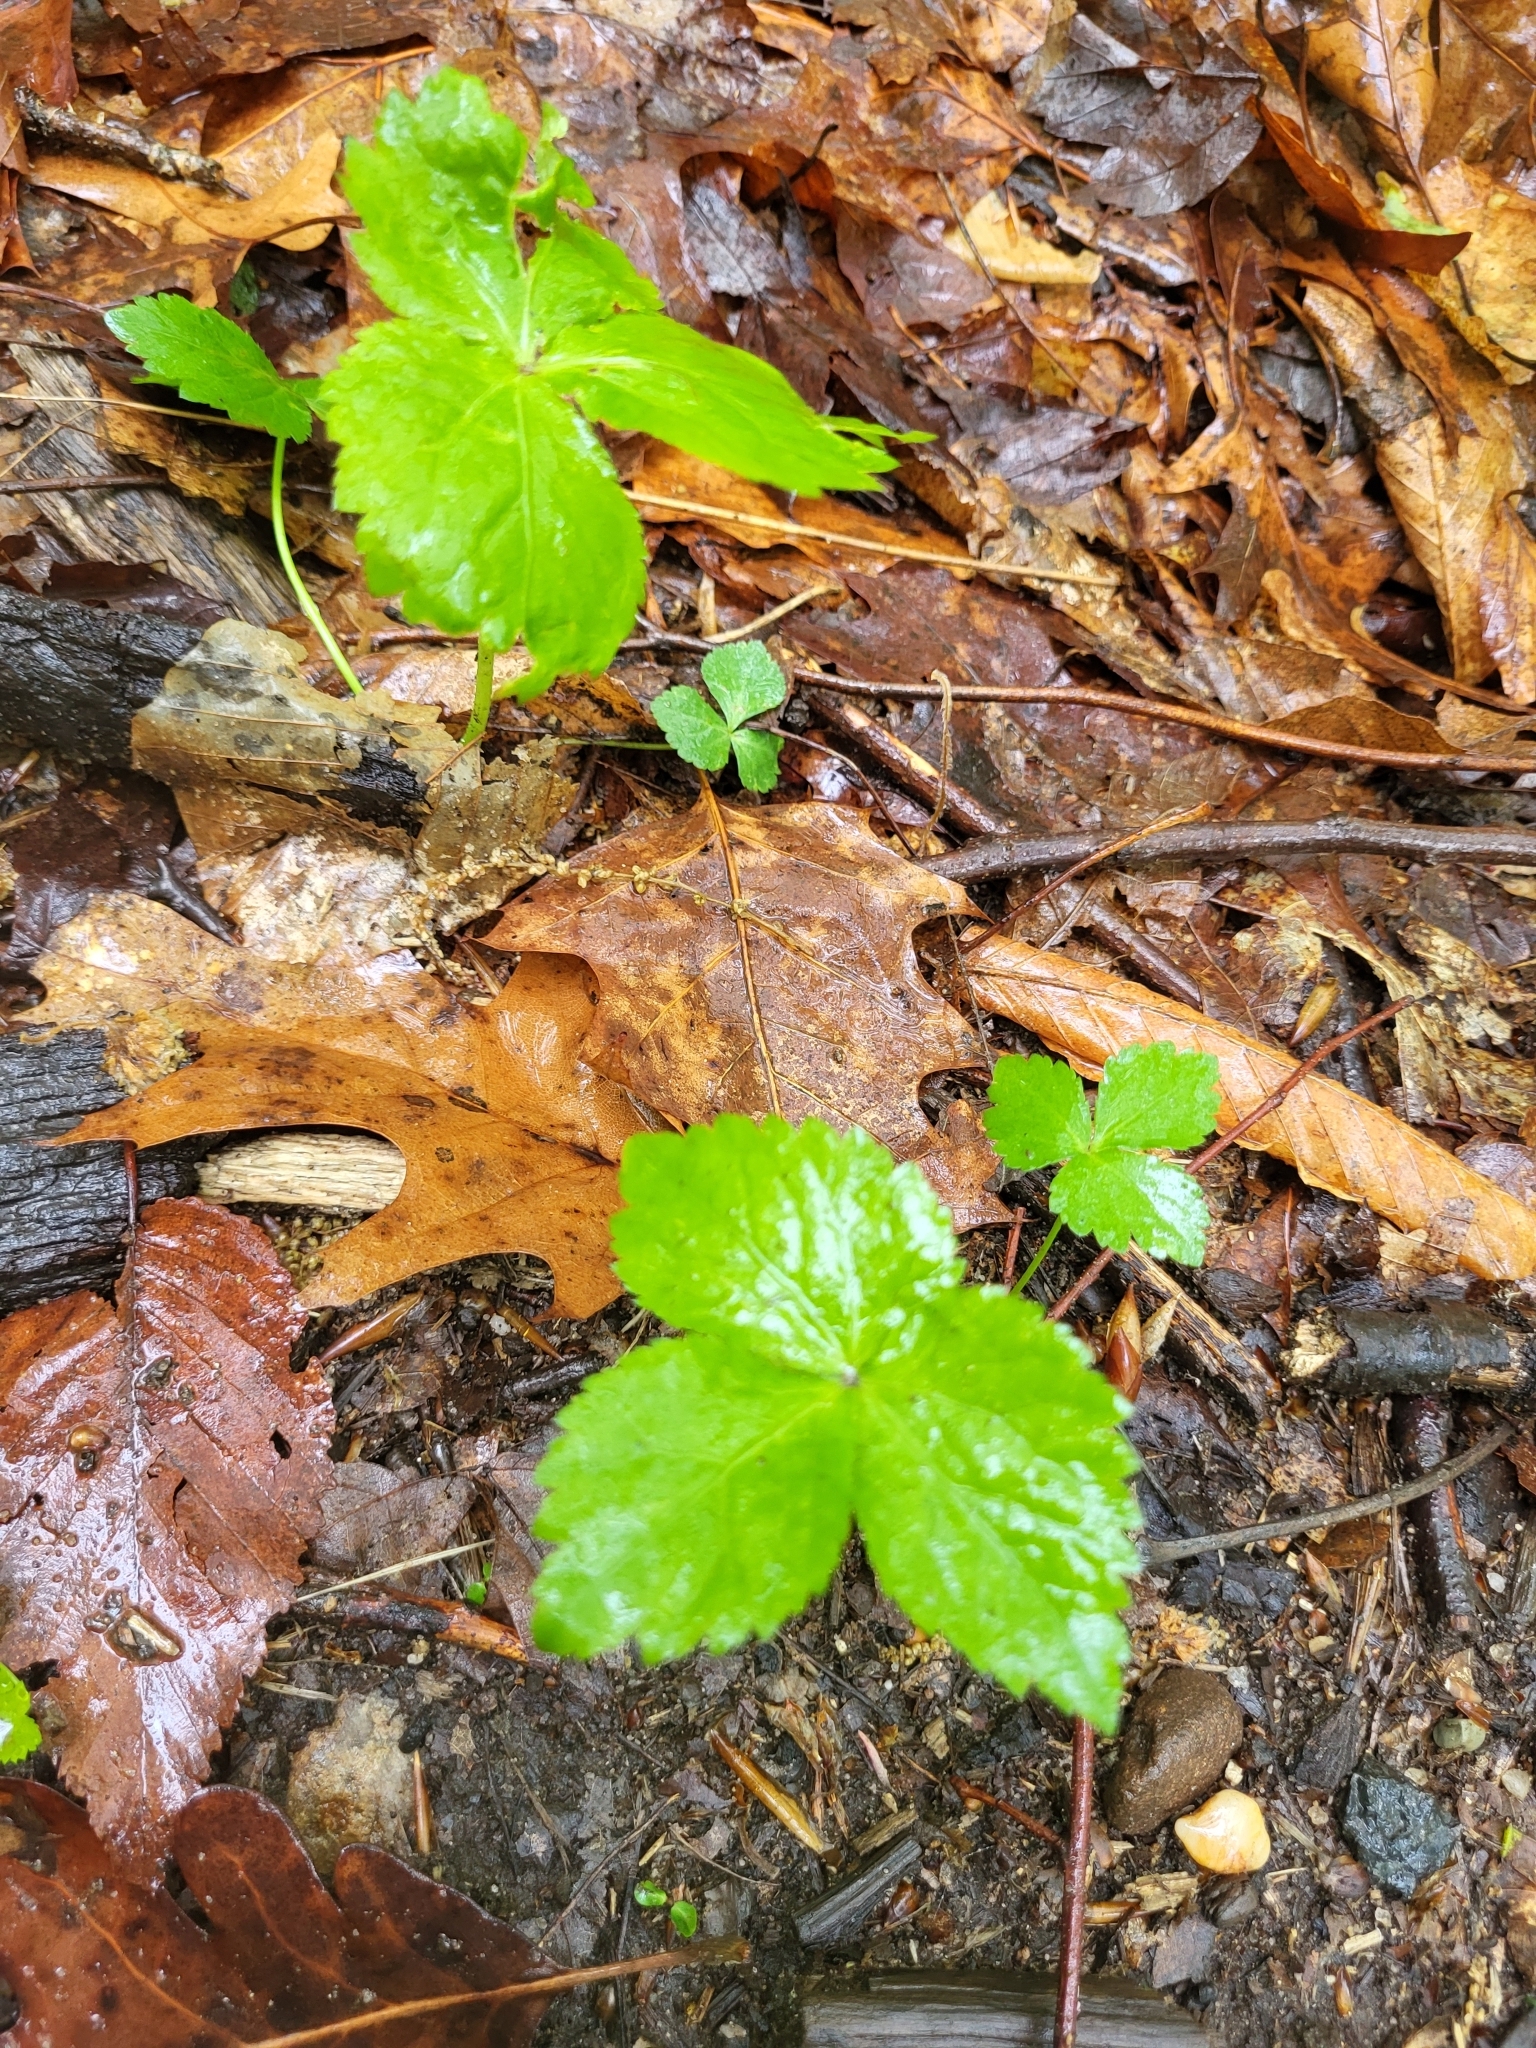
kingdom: Plantae
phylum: Tracheophyta
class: Magnoliopsida
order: Apiales
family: Apiaceae
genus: Cryptotaenia
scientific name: Cryptotaenia canadensis
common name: Honewort
